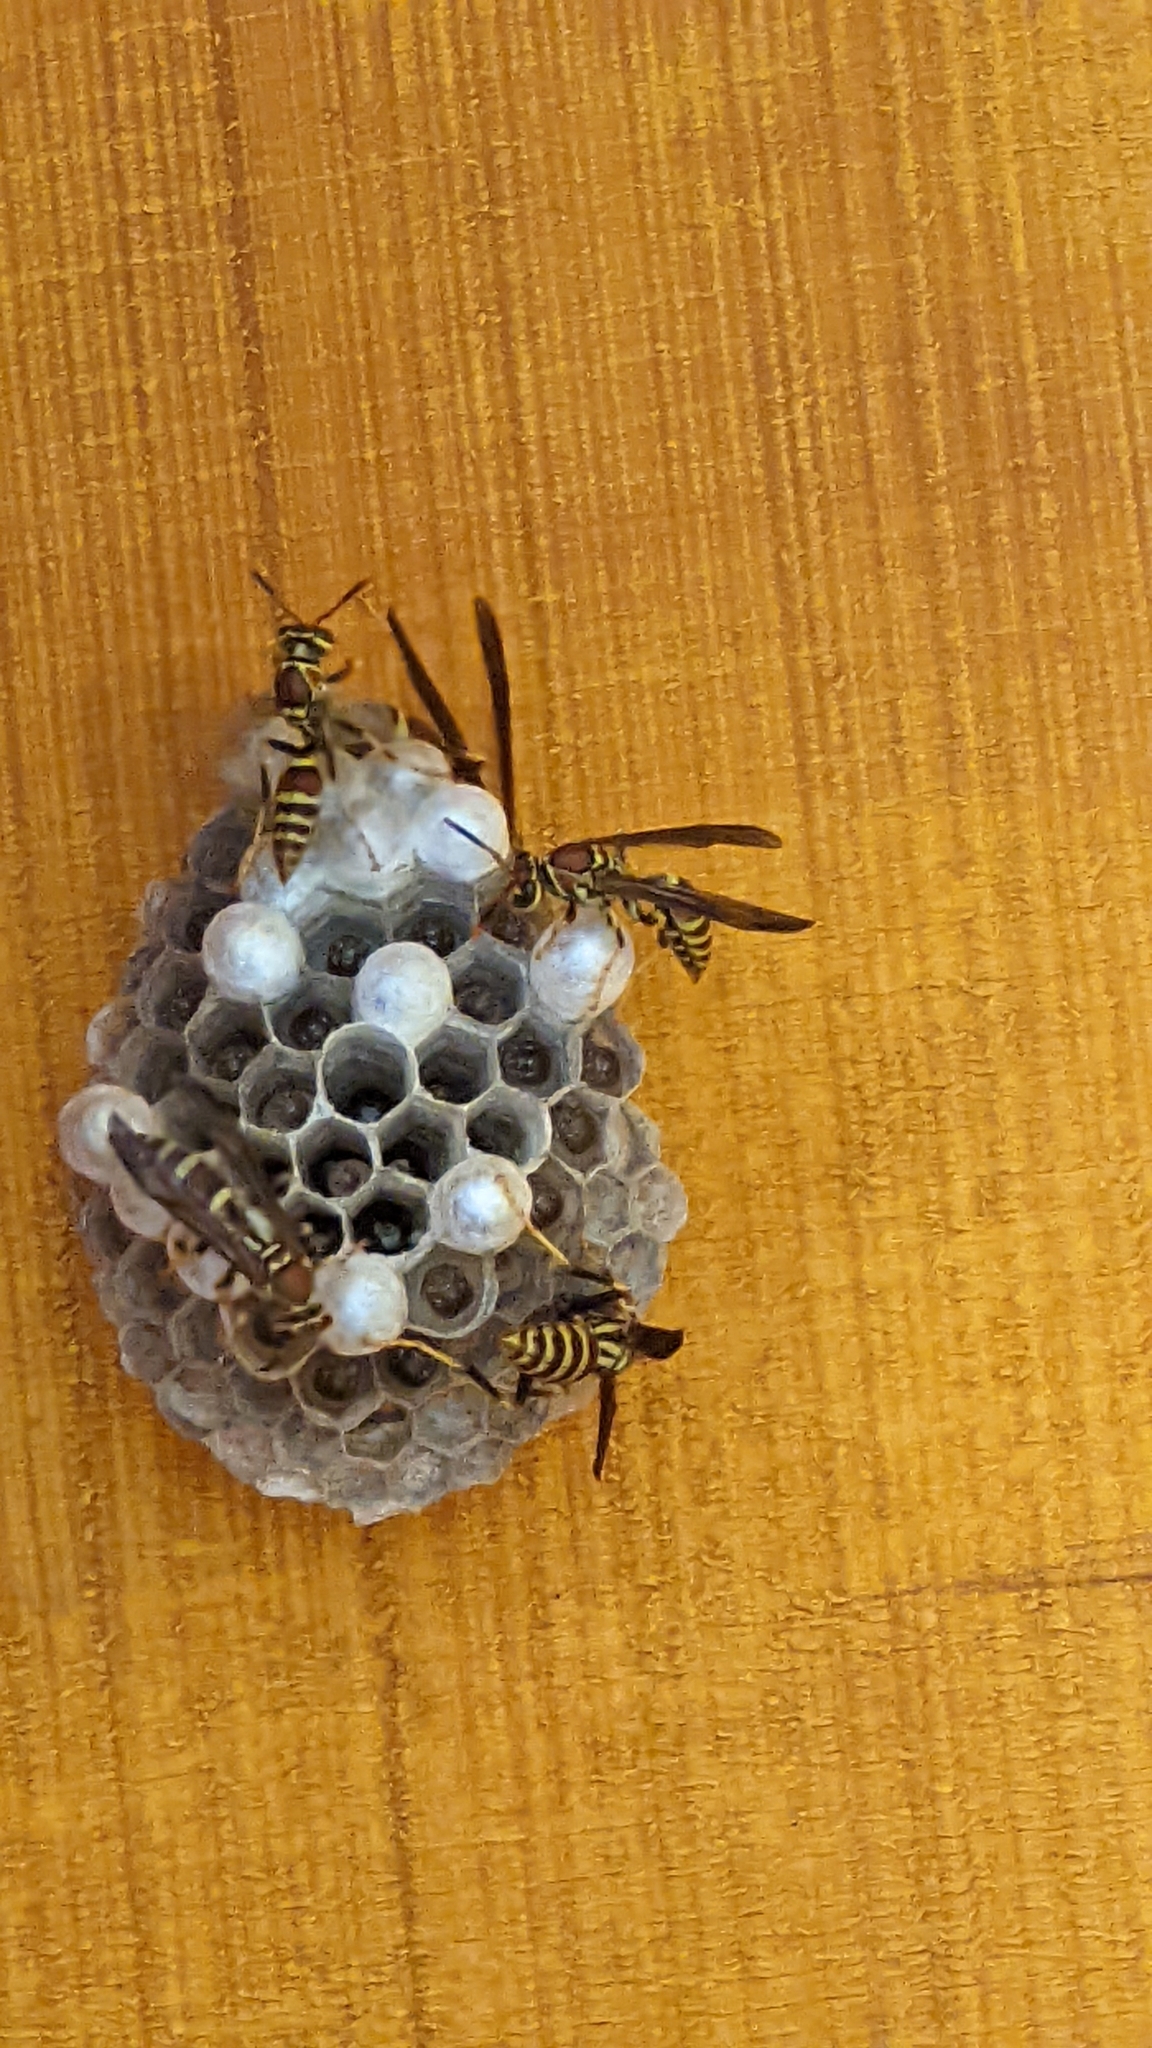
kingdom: Animalia
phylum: Arthropoda
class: Insecta
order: Hymenoptera
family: Eumenidae
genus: Polistes
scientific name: Polistes exclamans
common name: Paper wasp
